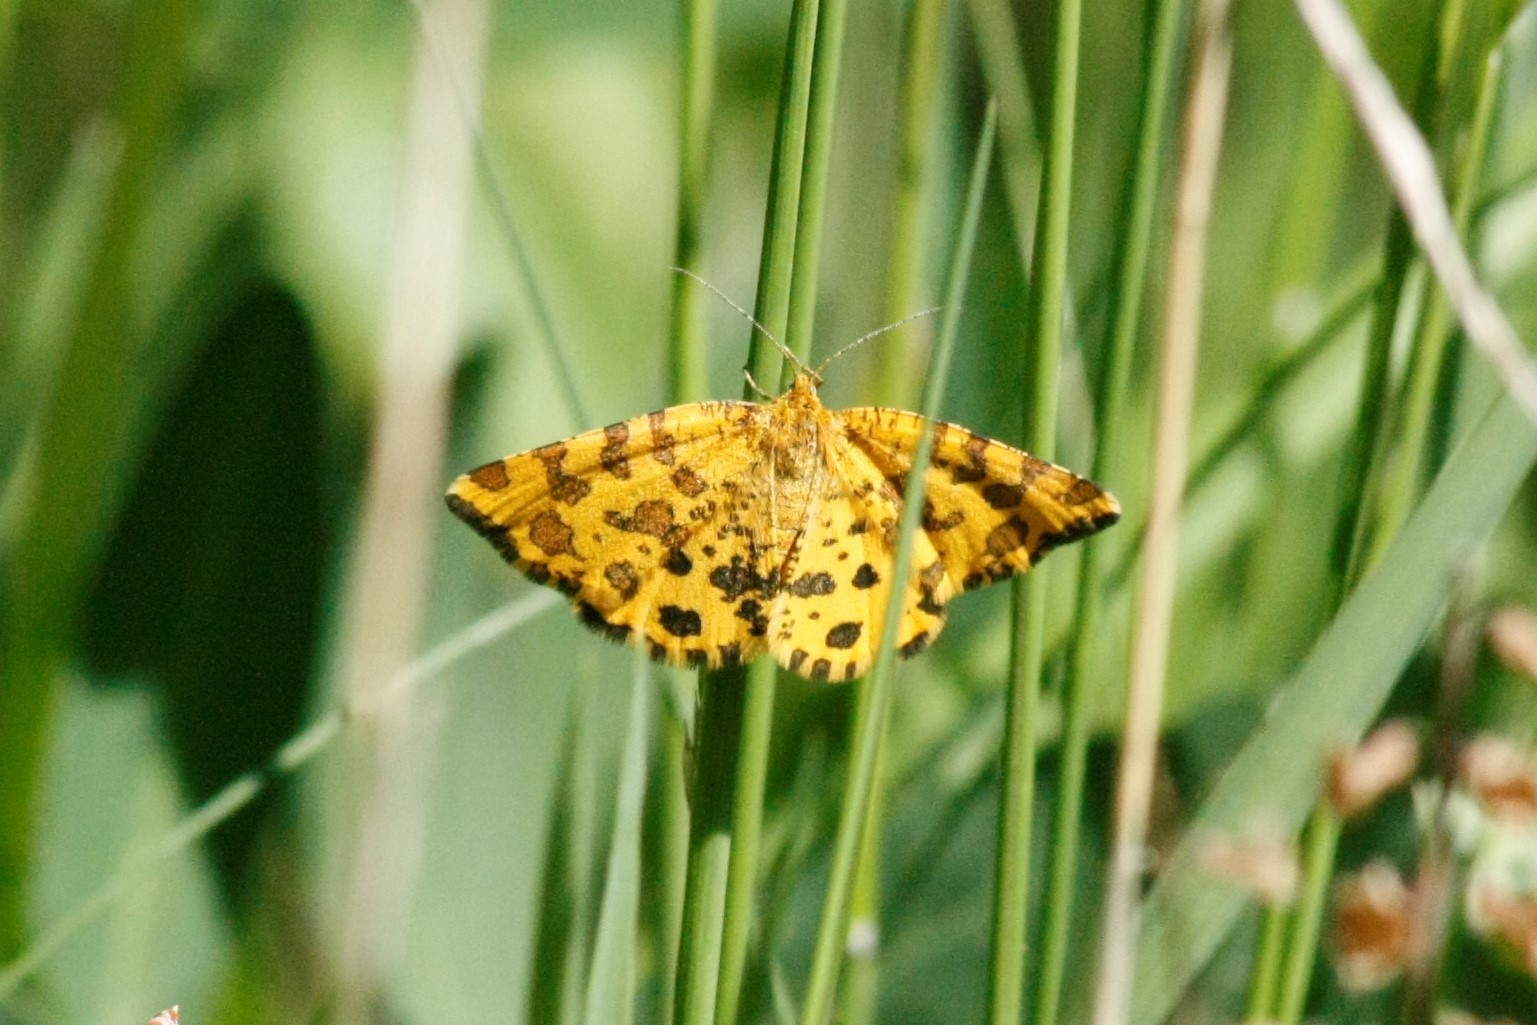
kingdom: Animalia
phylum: Arthropoda
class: Insecta
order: Lepidoptera
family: Geometridae
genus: Pseudopanthera
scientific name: Pseudopanthera macularia
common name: Speckled yellow
